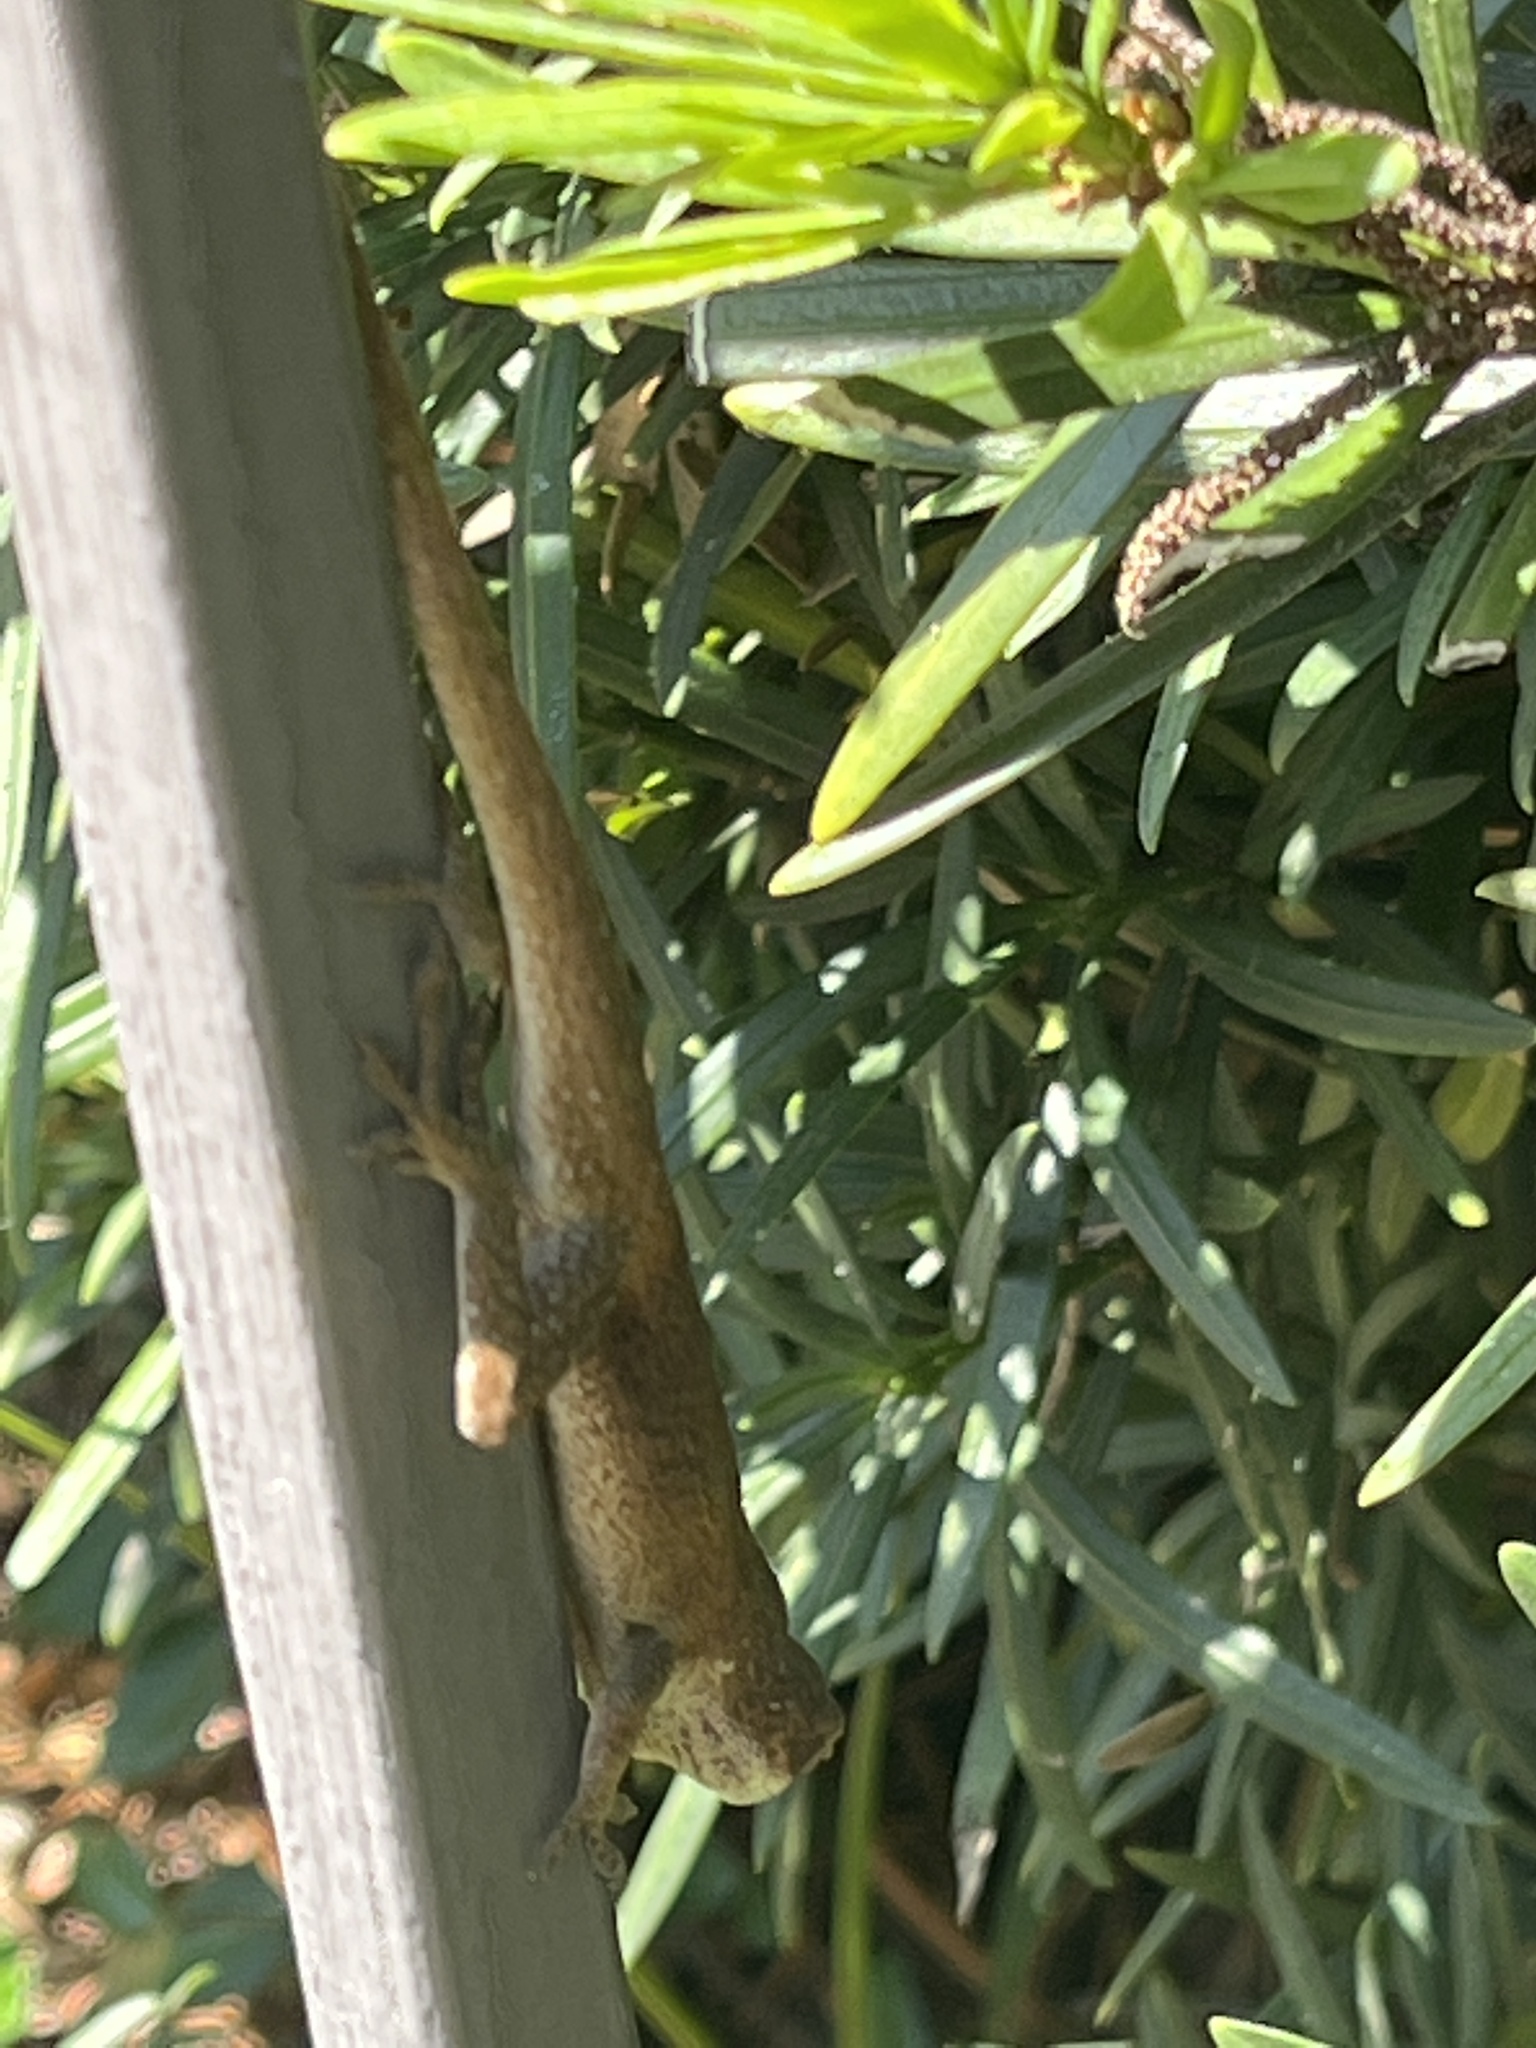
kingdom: Animalia
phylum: Chordata
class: Squamata
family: Dactyloidae
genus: Anolis
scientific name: Anolis carolinensis
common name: Green anole
